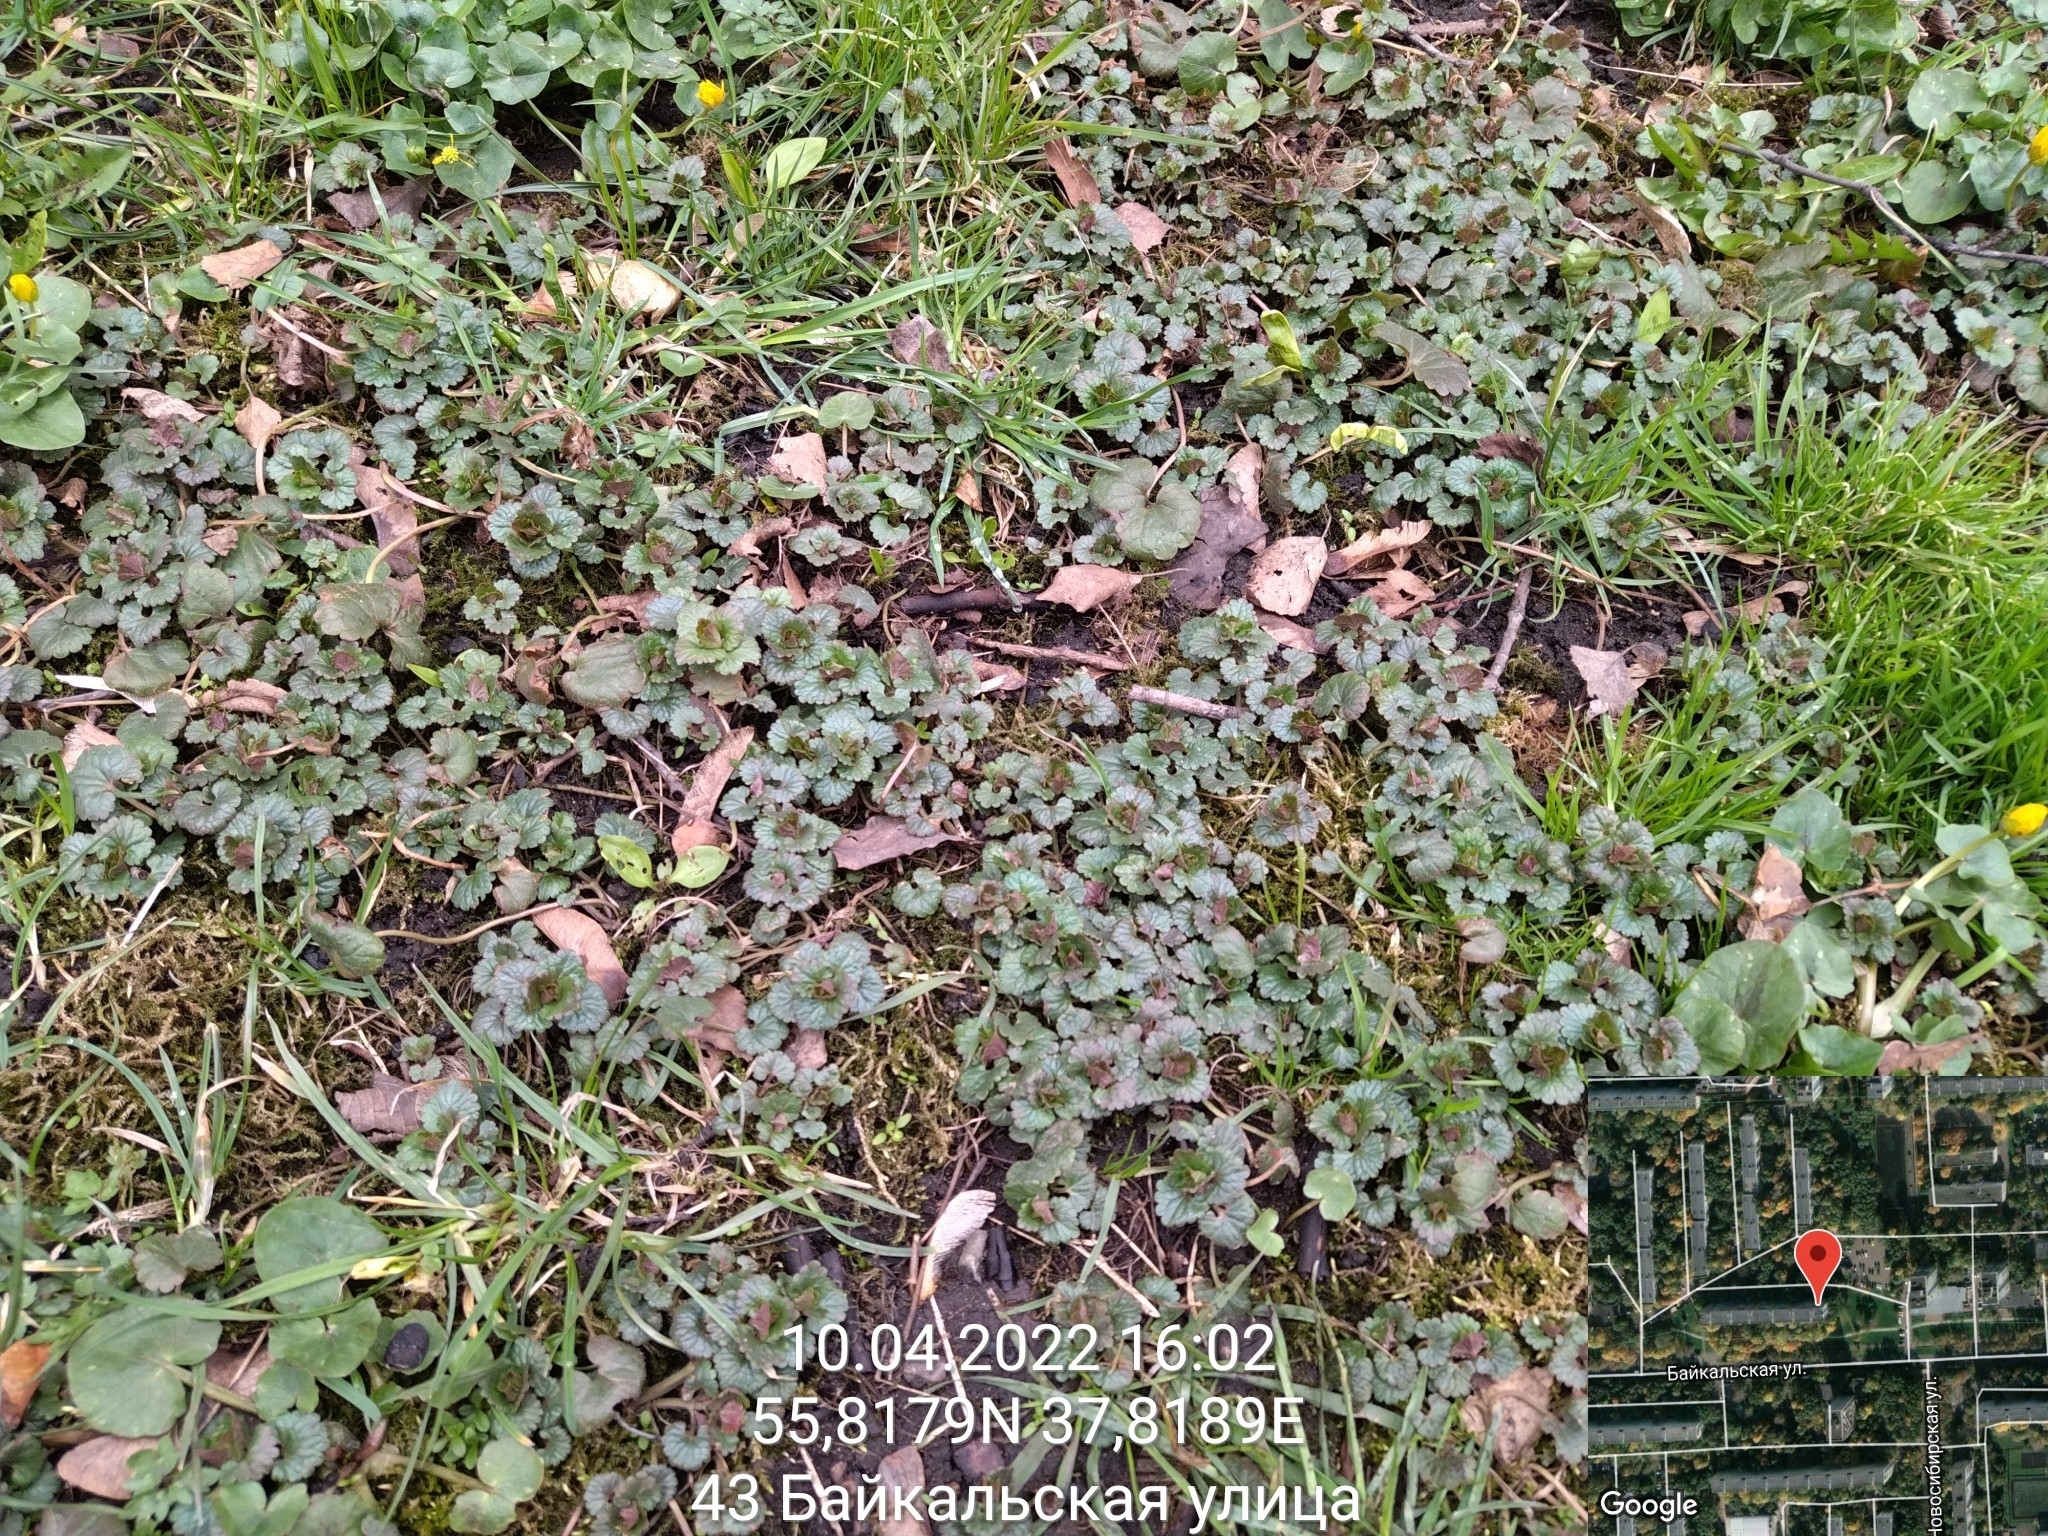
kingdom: Plantae
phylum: Tracheophyta
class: Magnoliopsida
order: Lamiales
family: Lamiaceae
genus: Glechoma
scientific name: Glechoma hederacea
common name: Ground ivy
